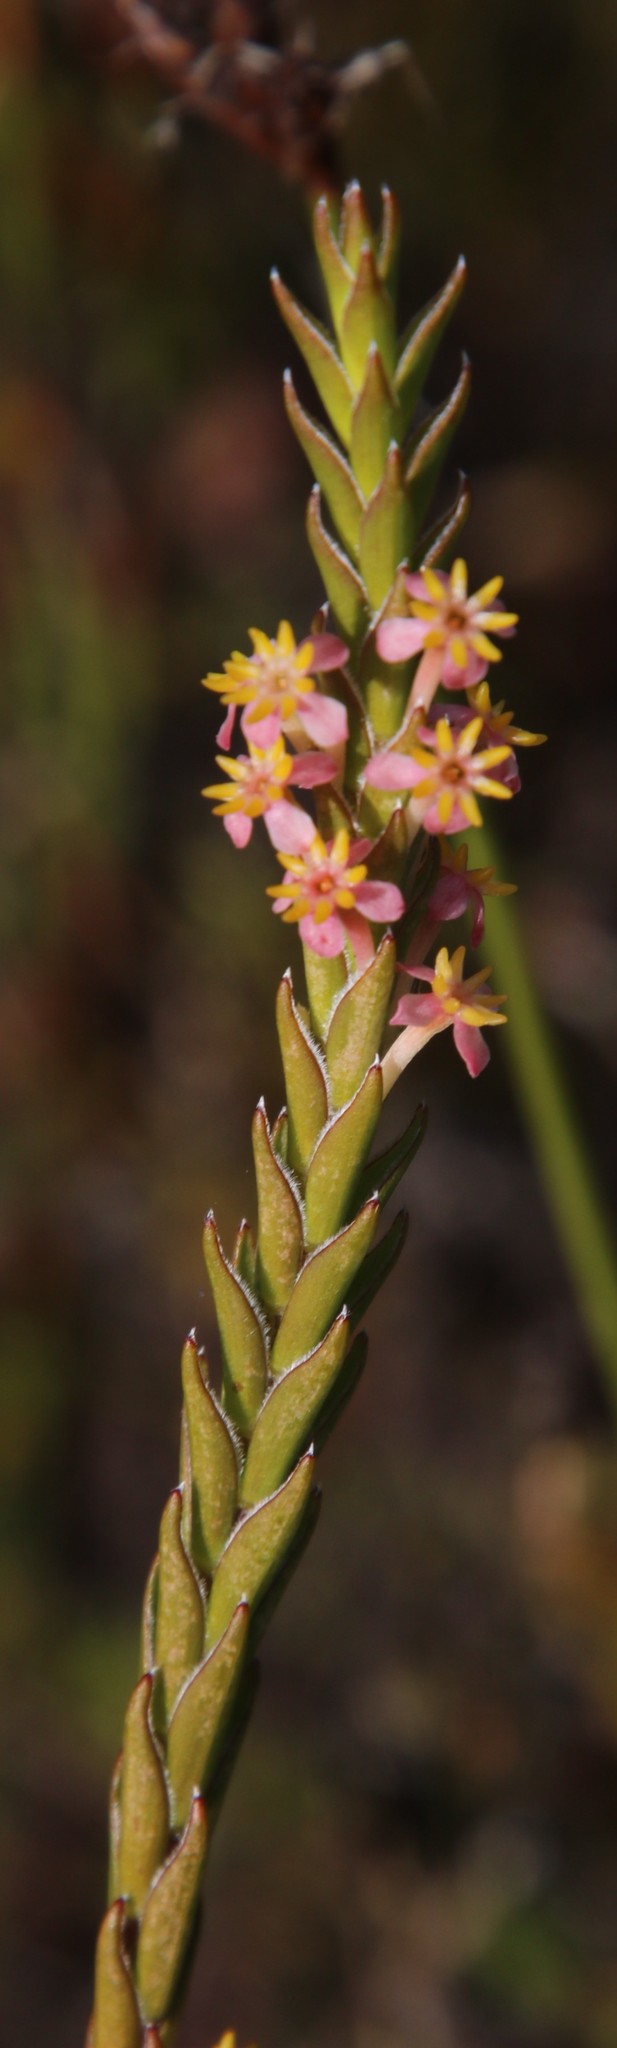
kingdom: Plantae
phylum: Tracheophyta
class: Magnoliopsida
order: Malvales
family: Thymelaeaceae
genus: Struthiola
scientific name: Struthiola ciliata
